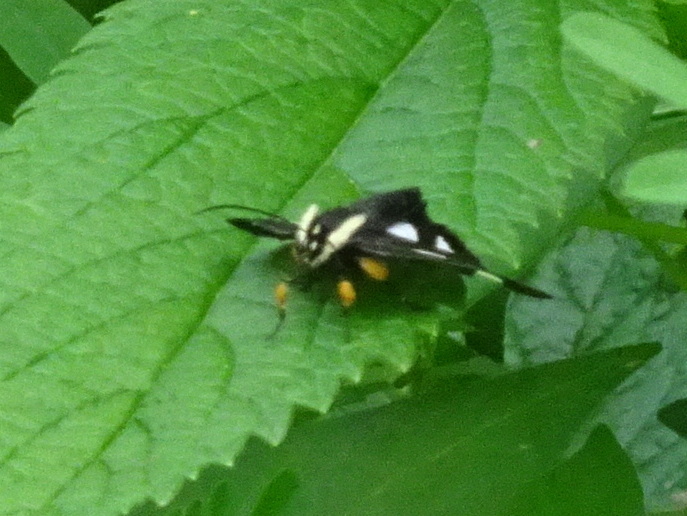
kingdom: Animalia
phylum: Arthropoda
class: Insecta
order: Lepidoptera
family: Noctuidae
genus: Alypia
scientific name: Alypia octomaculata
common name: Eight-spotted forester
